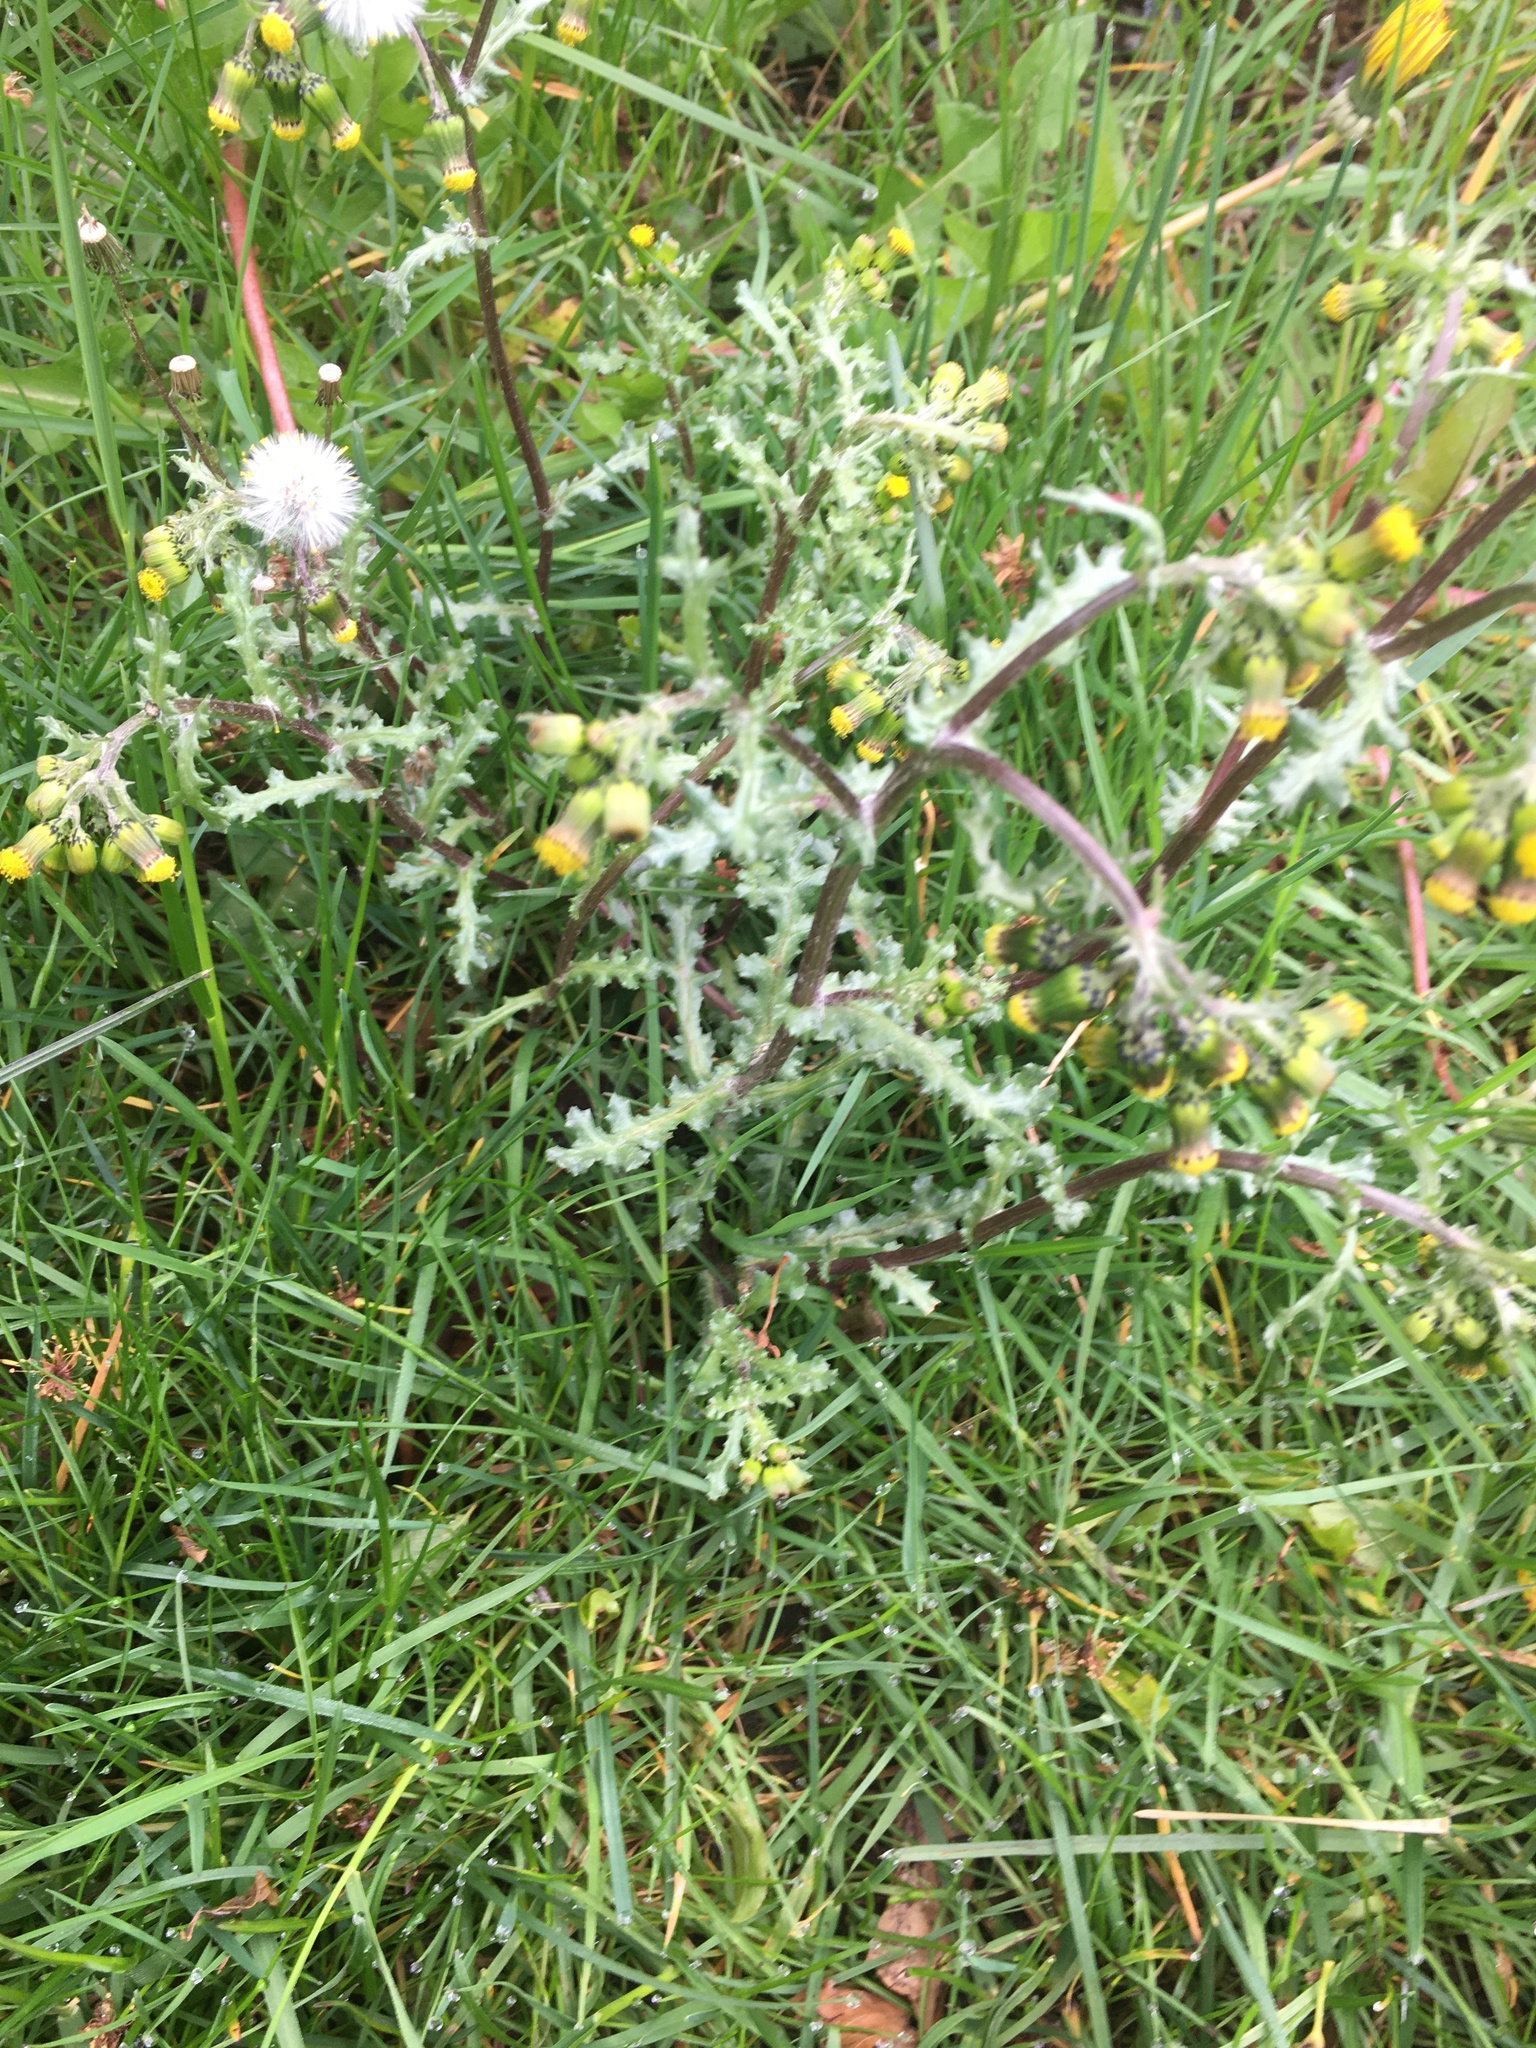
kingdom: Plantae
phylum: Tracheophyta
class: Magnoliopsida
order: Asterales
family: Asteraceae
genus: Senecio
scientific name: Senecio vulgaris
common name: Old-man-in-the-spring
